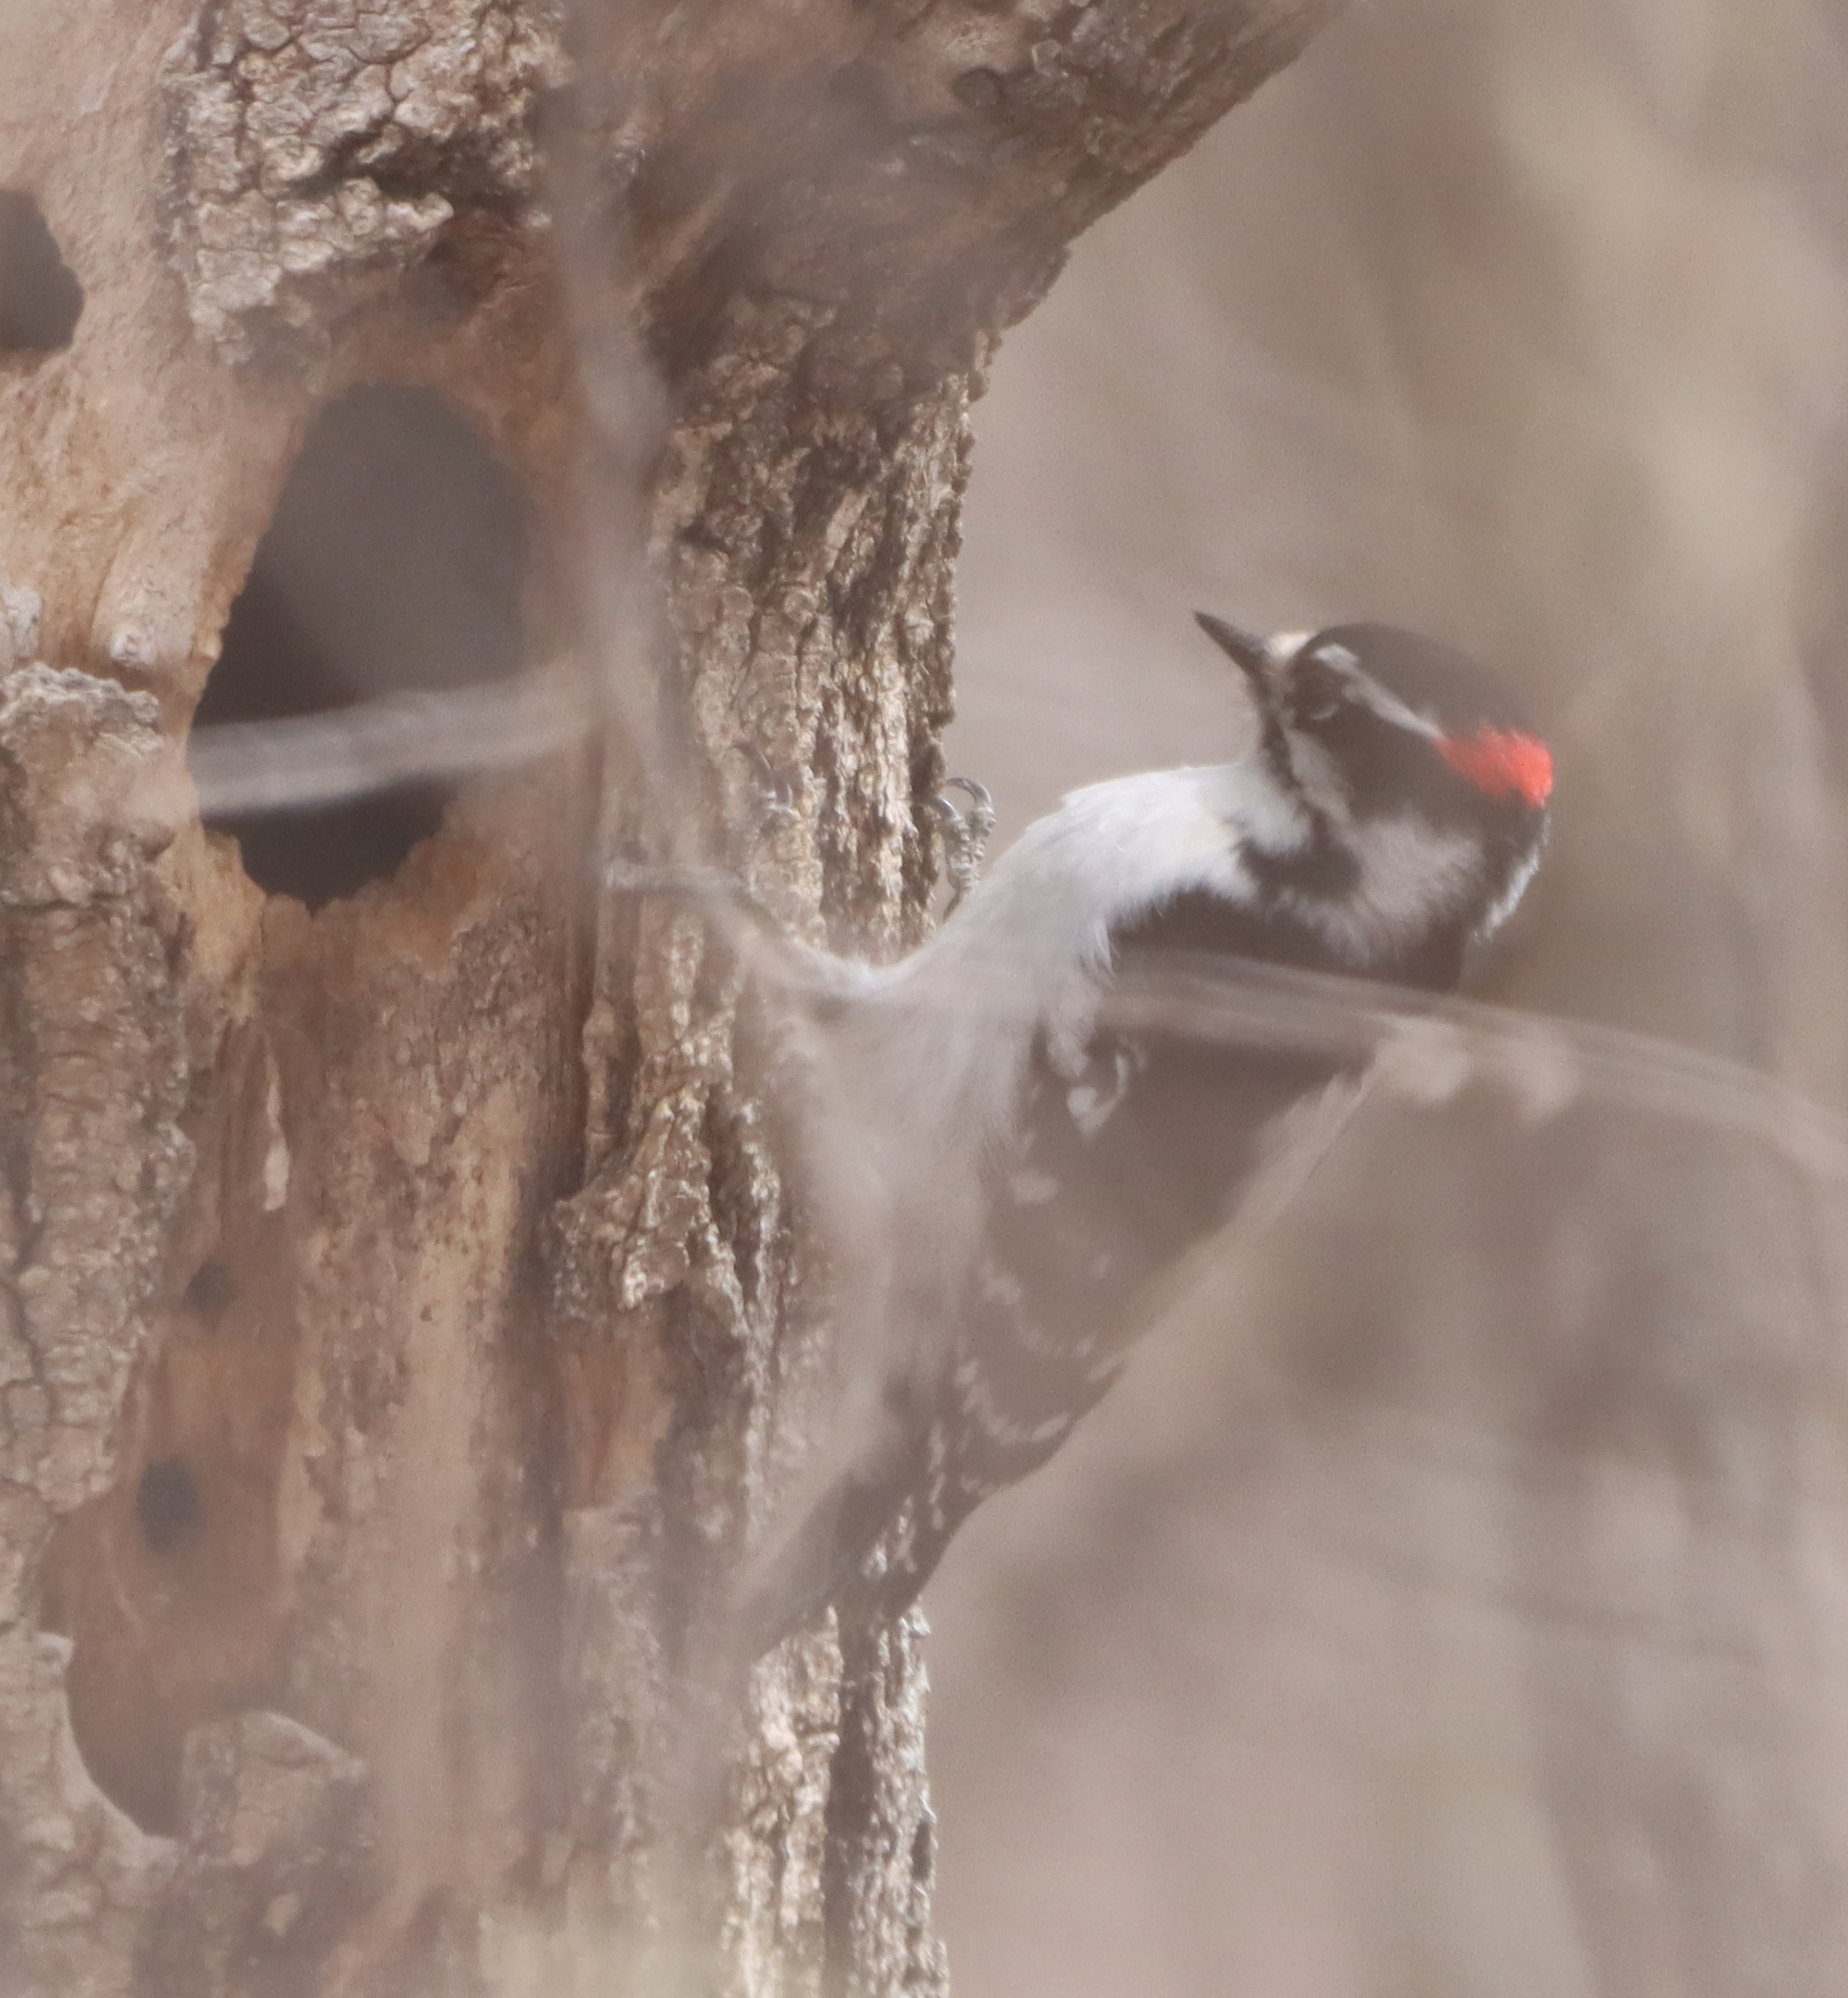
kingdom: Animalia
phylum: Chordata
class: Aves
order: Piciformes
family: Picidae
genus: Dryobates
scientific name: Dryobates pubescens
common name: Downy woodpecker
